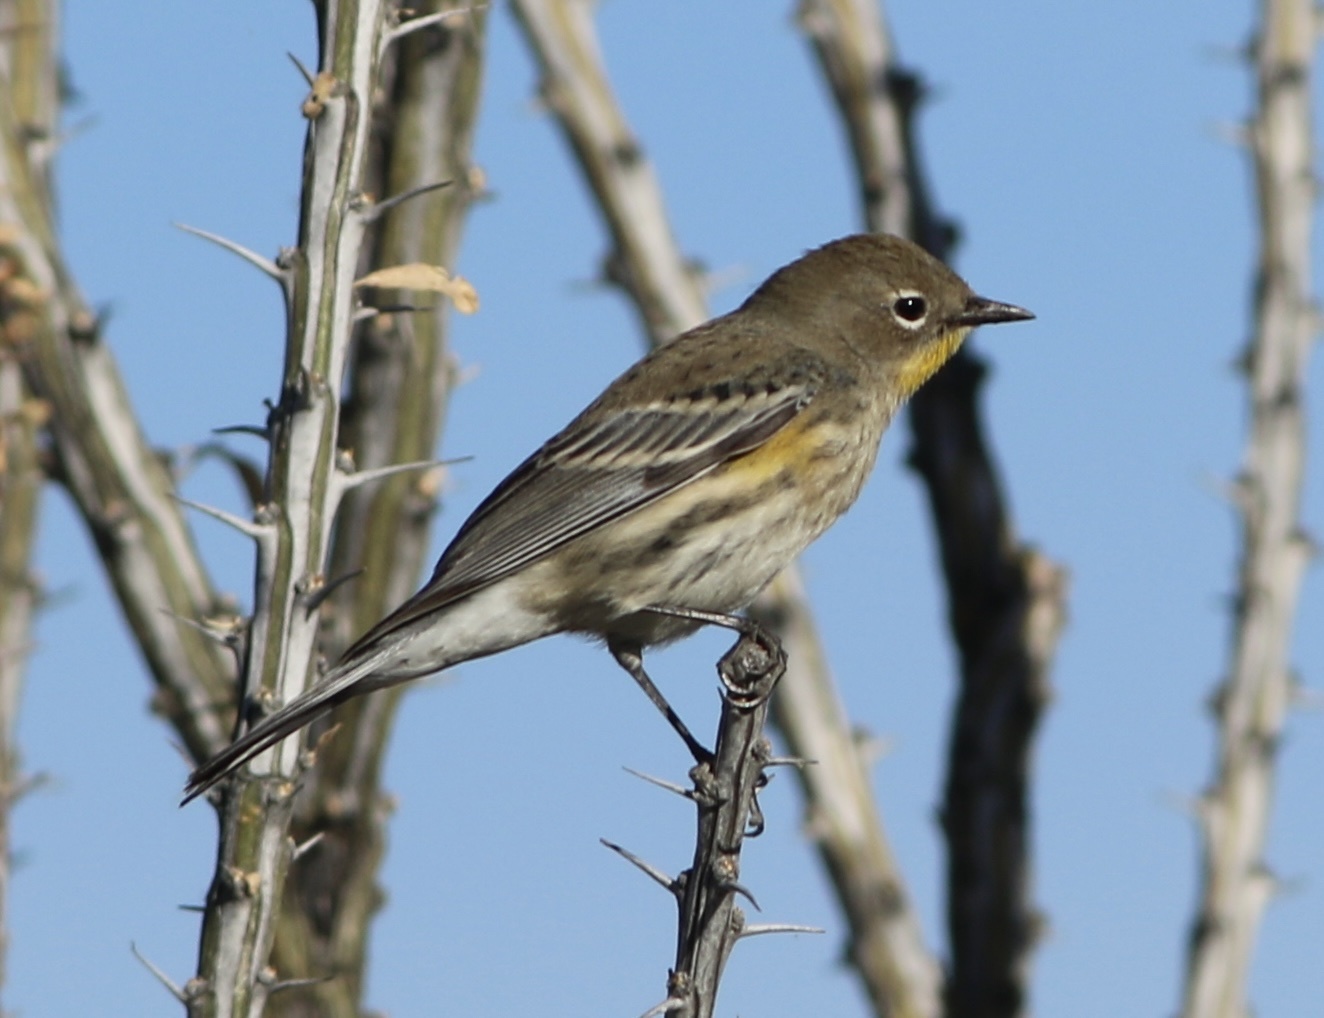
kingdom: Animalia
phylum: Chordata
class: Aves
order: Passeriformes
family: Parulidae
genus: Setophaga
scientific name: Setophaga auduboni
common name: Audubon's warbler
